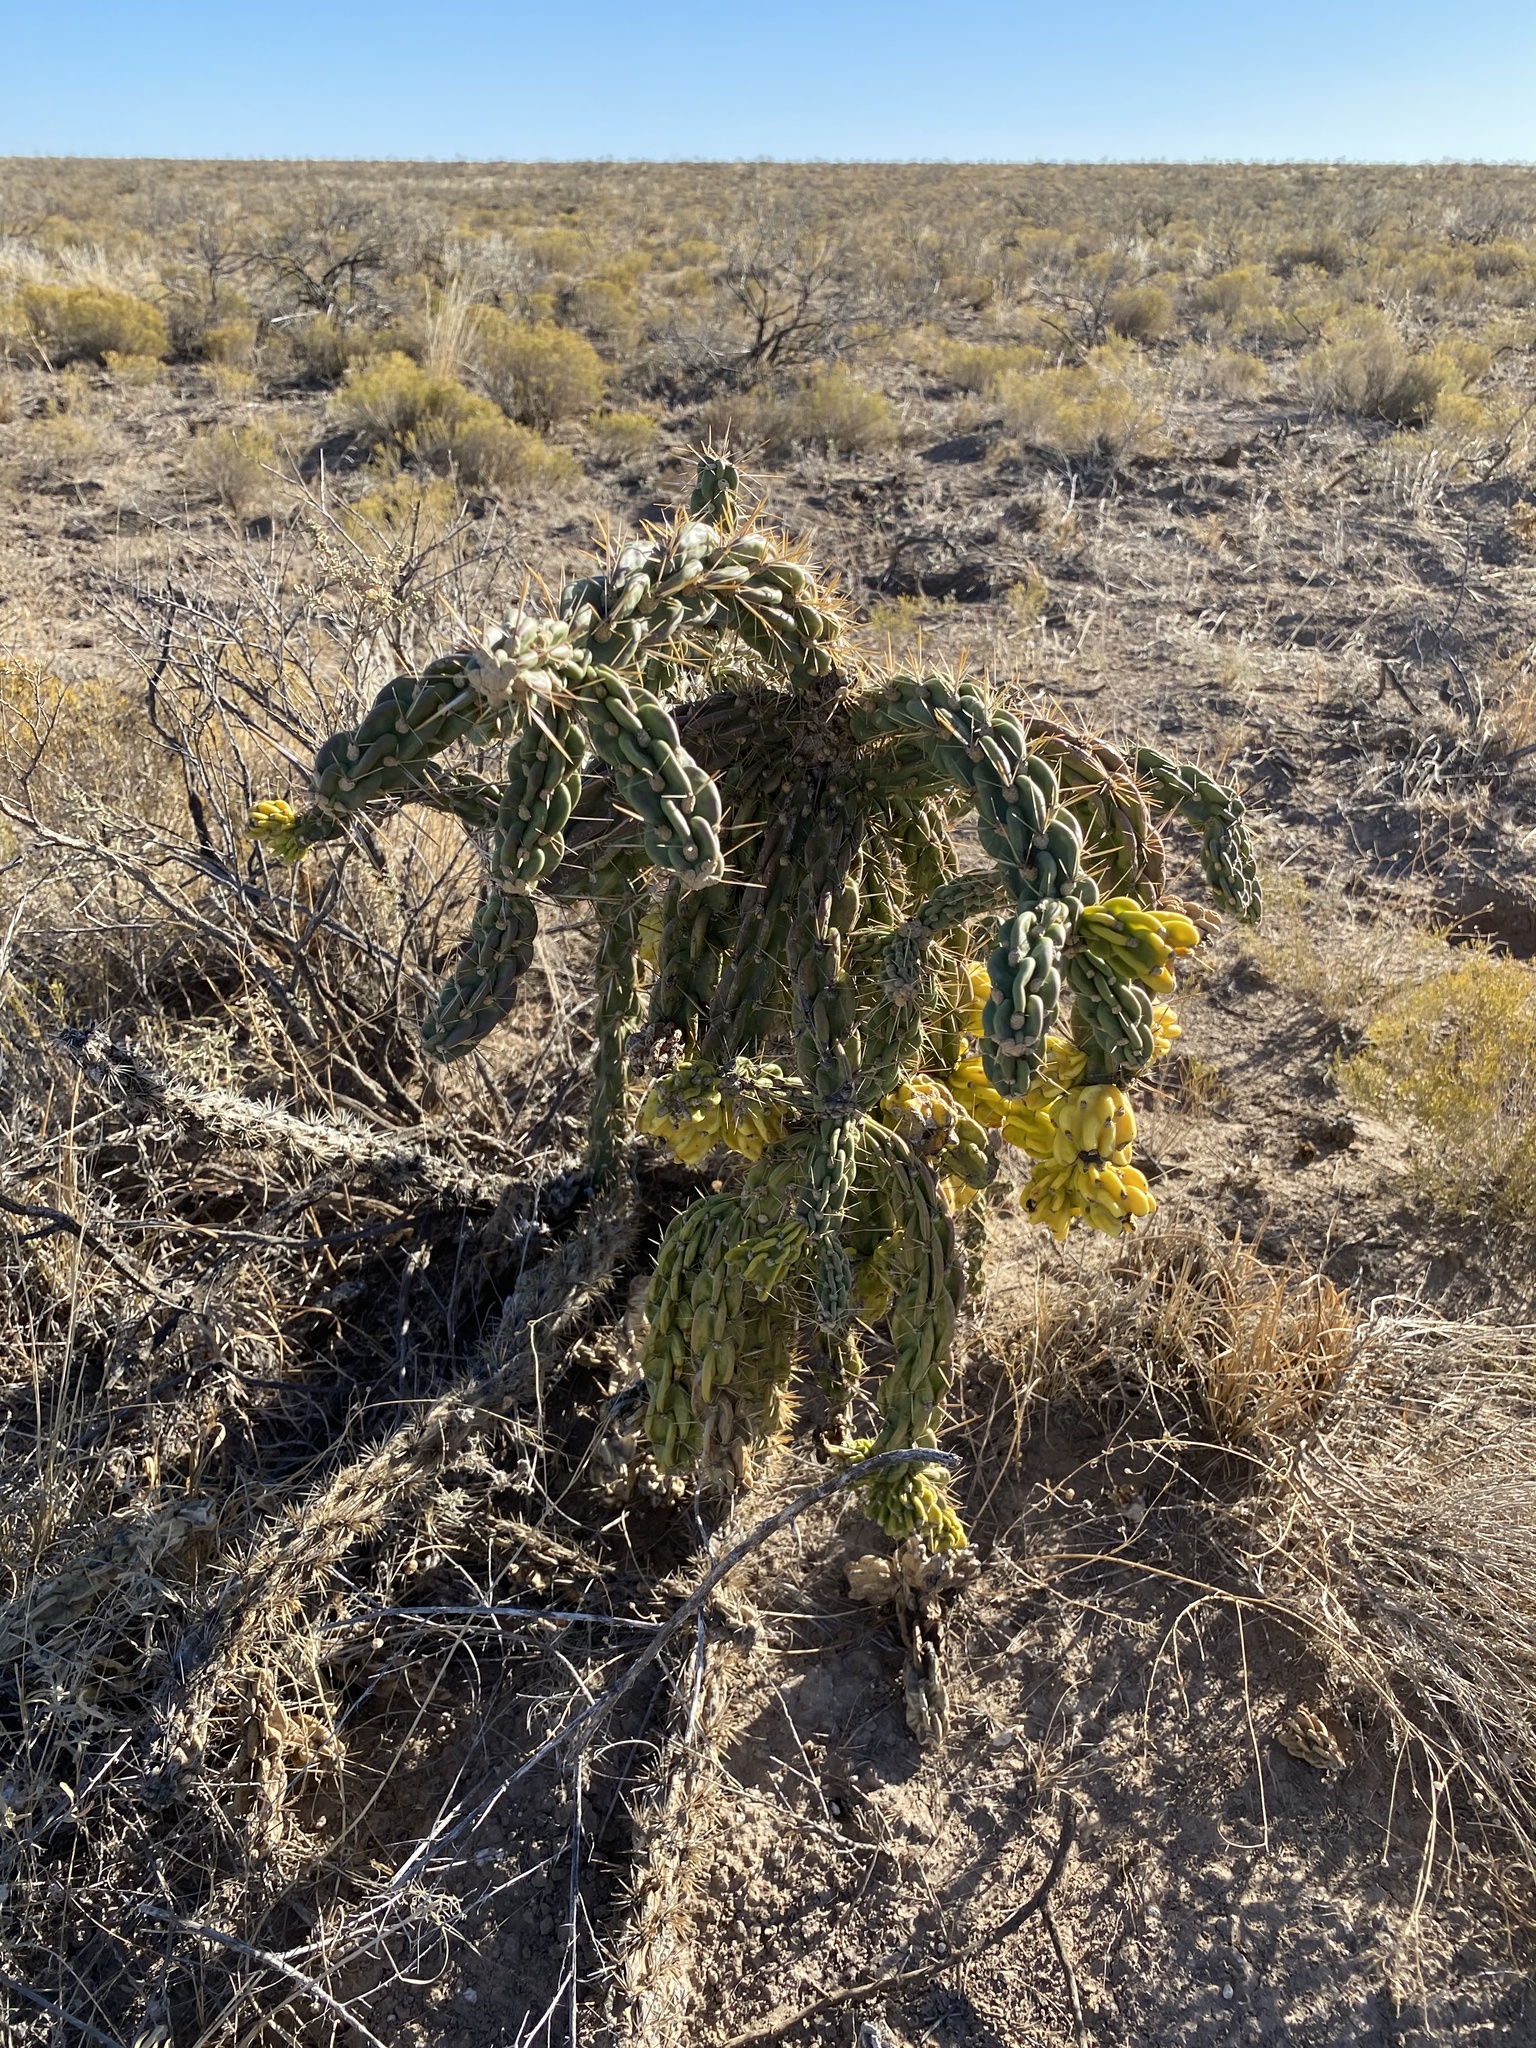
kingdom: Plantae
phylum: Tracheophyta
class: Magnoliopsida
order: Caryophyllales
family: Cactaceae
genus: Cylindropuntia
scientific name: Cylindropuntia imbricata
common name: Candelabrum cactus
